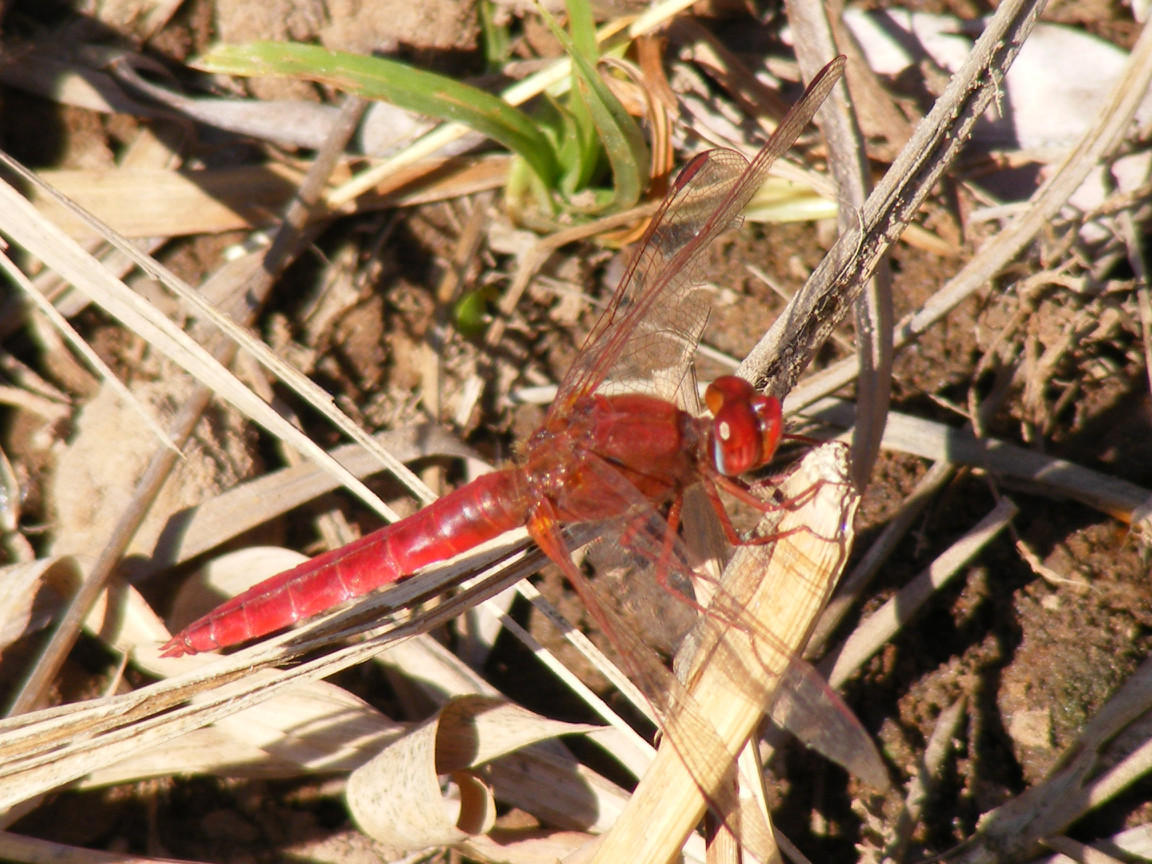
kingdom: Animalia
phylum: Arthropoda
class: Insecta
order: Odonata
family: Libellulidae
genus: Crocothemis
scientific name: Crocothemis erythraea
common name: Scarlet dragonfly
